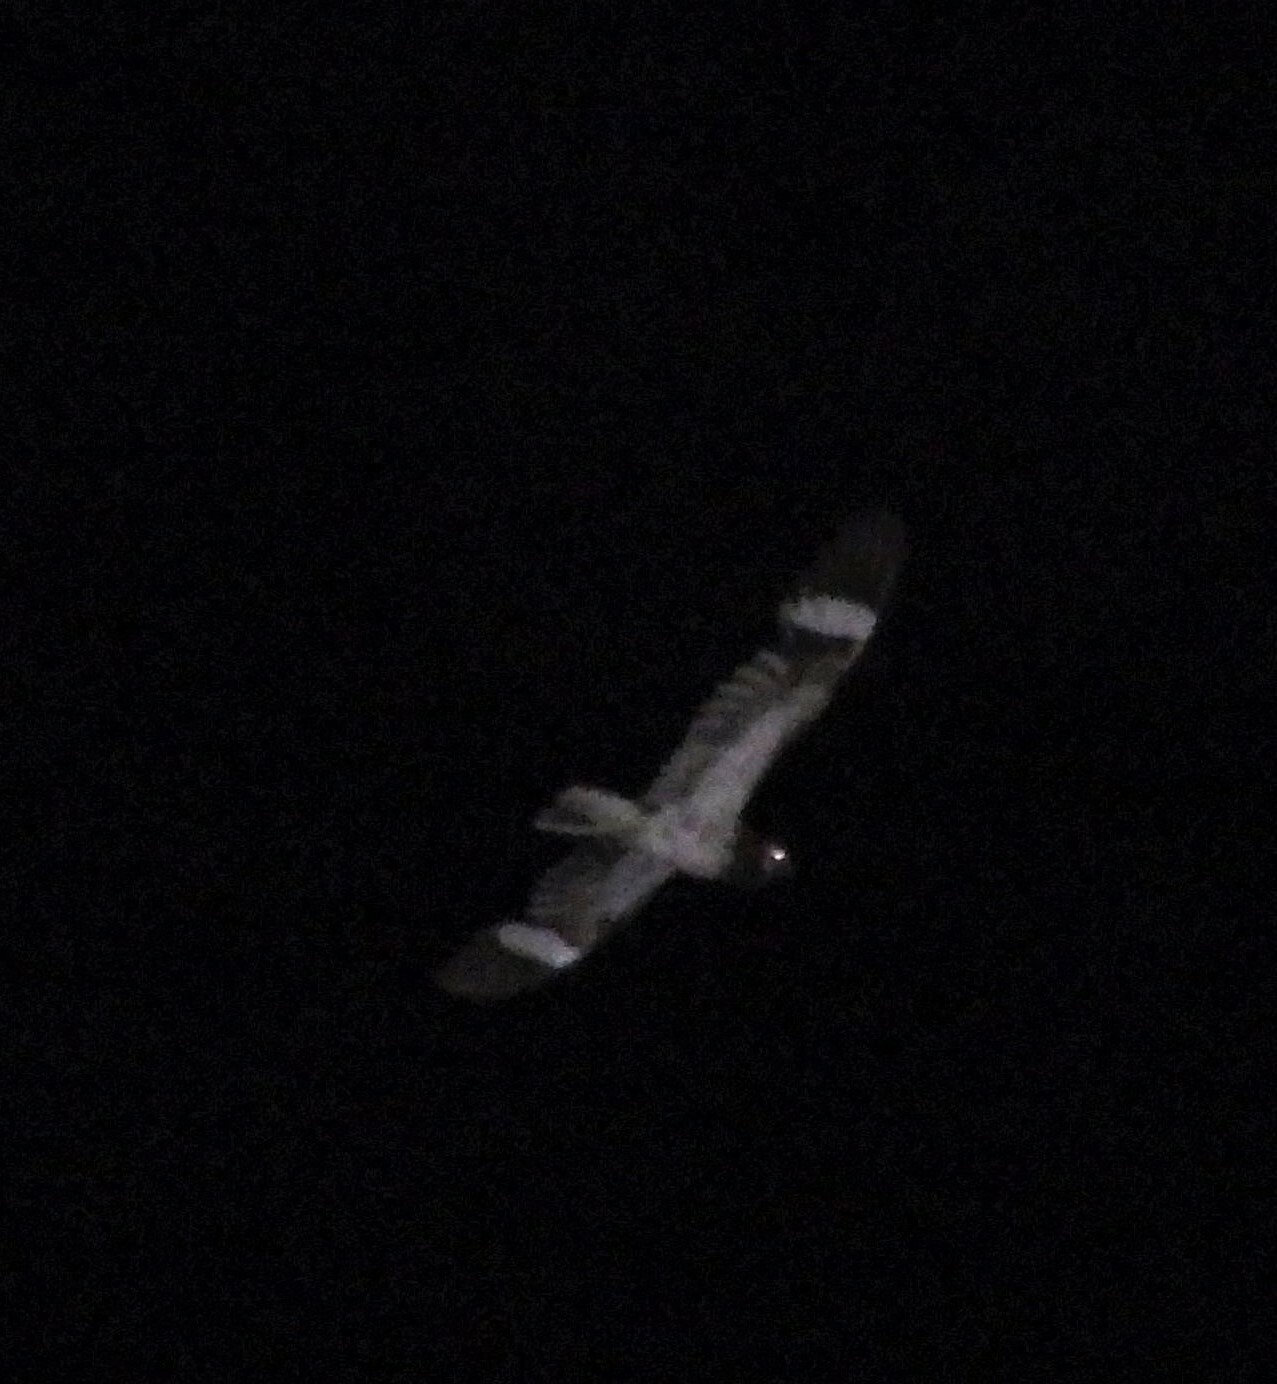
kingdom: Animalia
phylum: Chordata
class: Aves
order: Caprimulgiformes
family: Caprimulgidae
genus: Chordeiles
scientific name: Chordeiles nacunda
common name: Nacunda nighthawk
